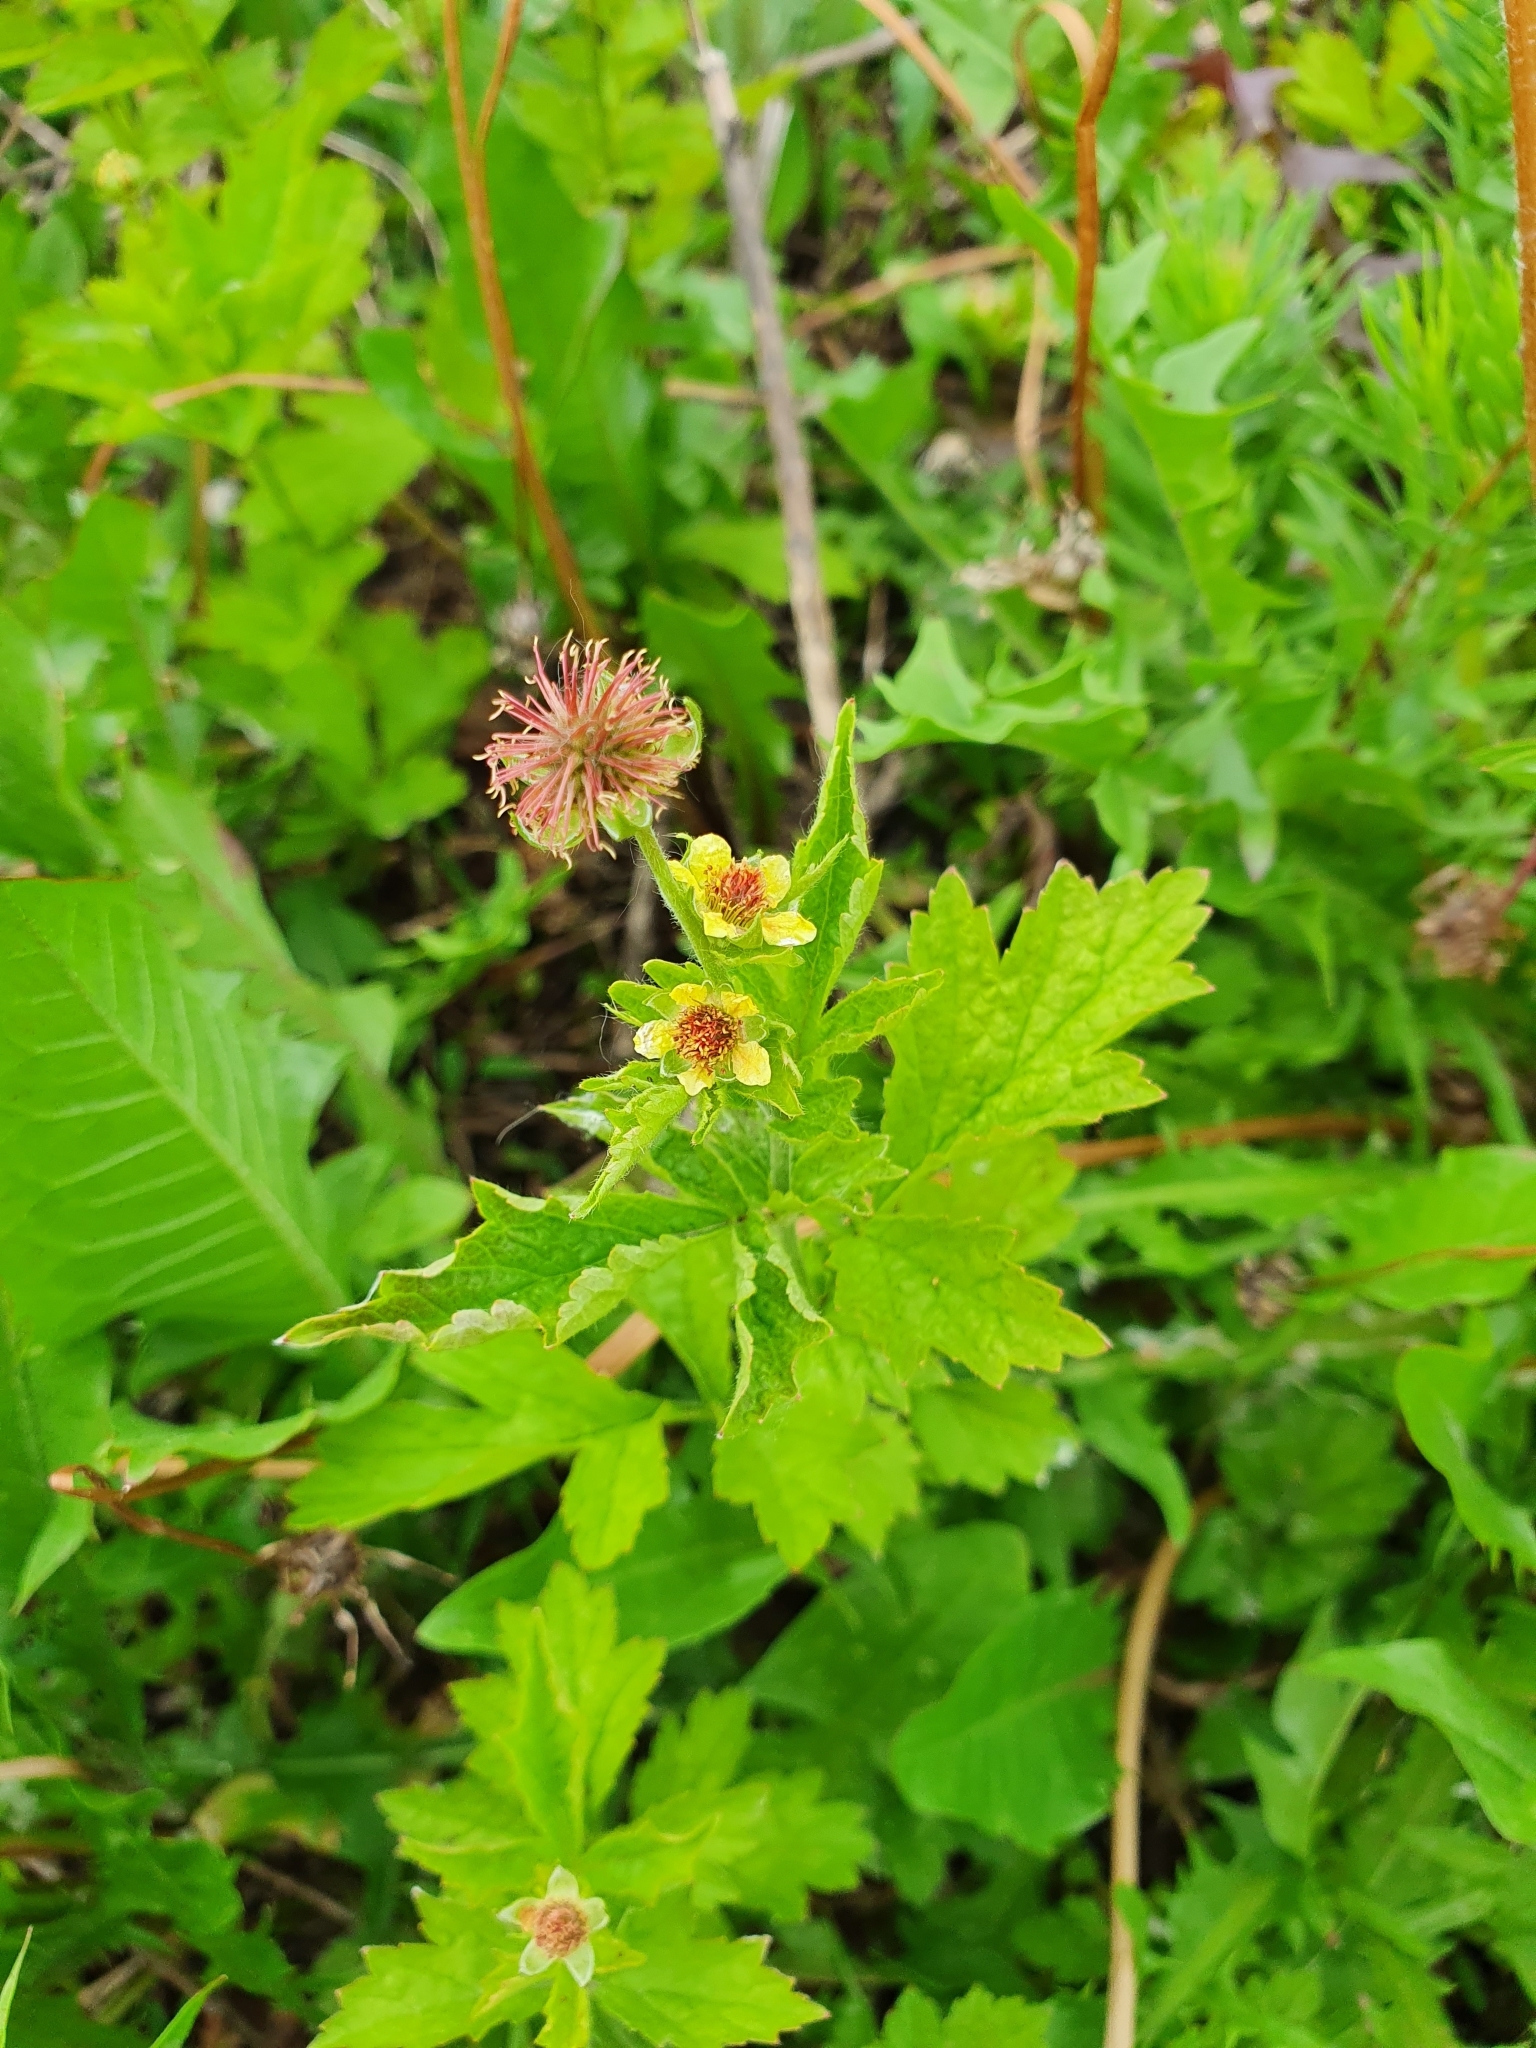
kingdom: Plantae
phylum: Tracheophyta
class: Magnoliopsida
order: Rosales
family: Rosaceae
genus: Geum
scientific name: Geum urbanum
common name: Wood avens
